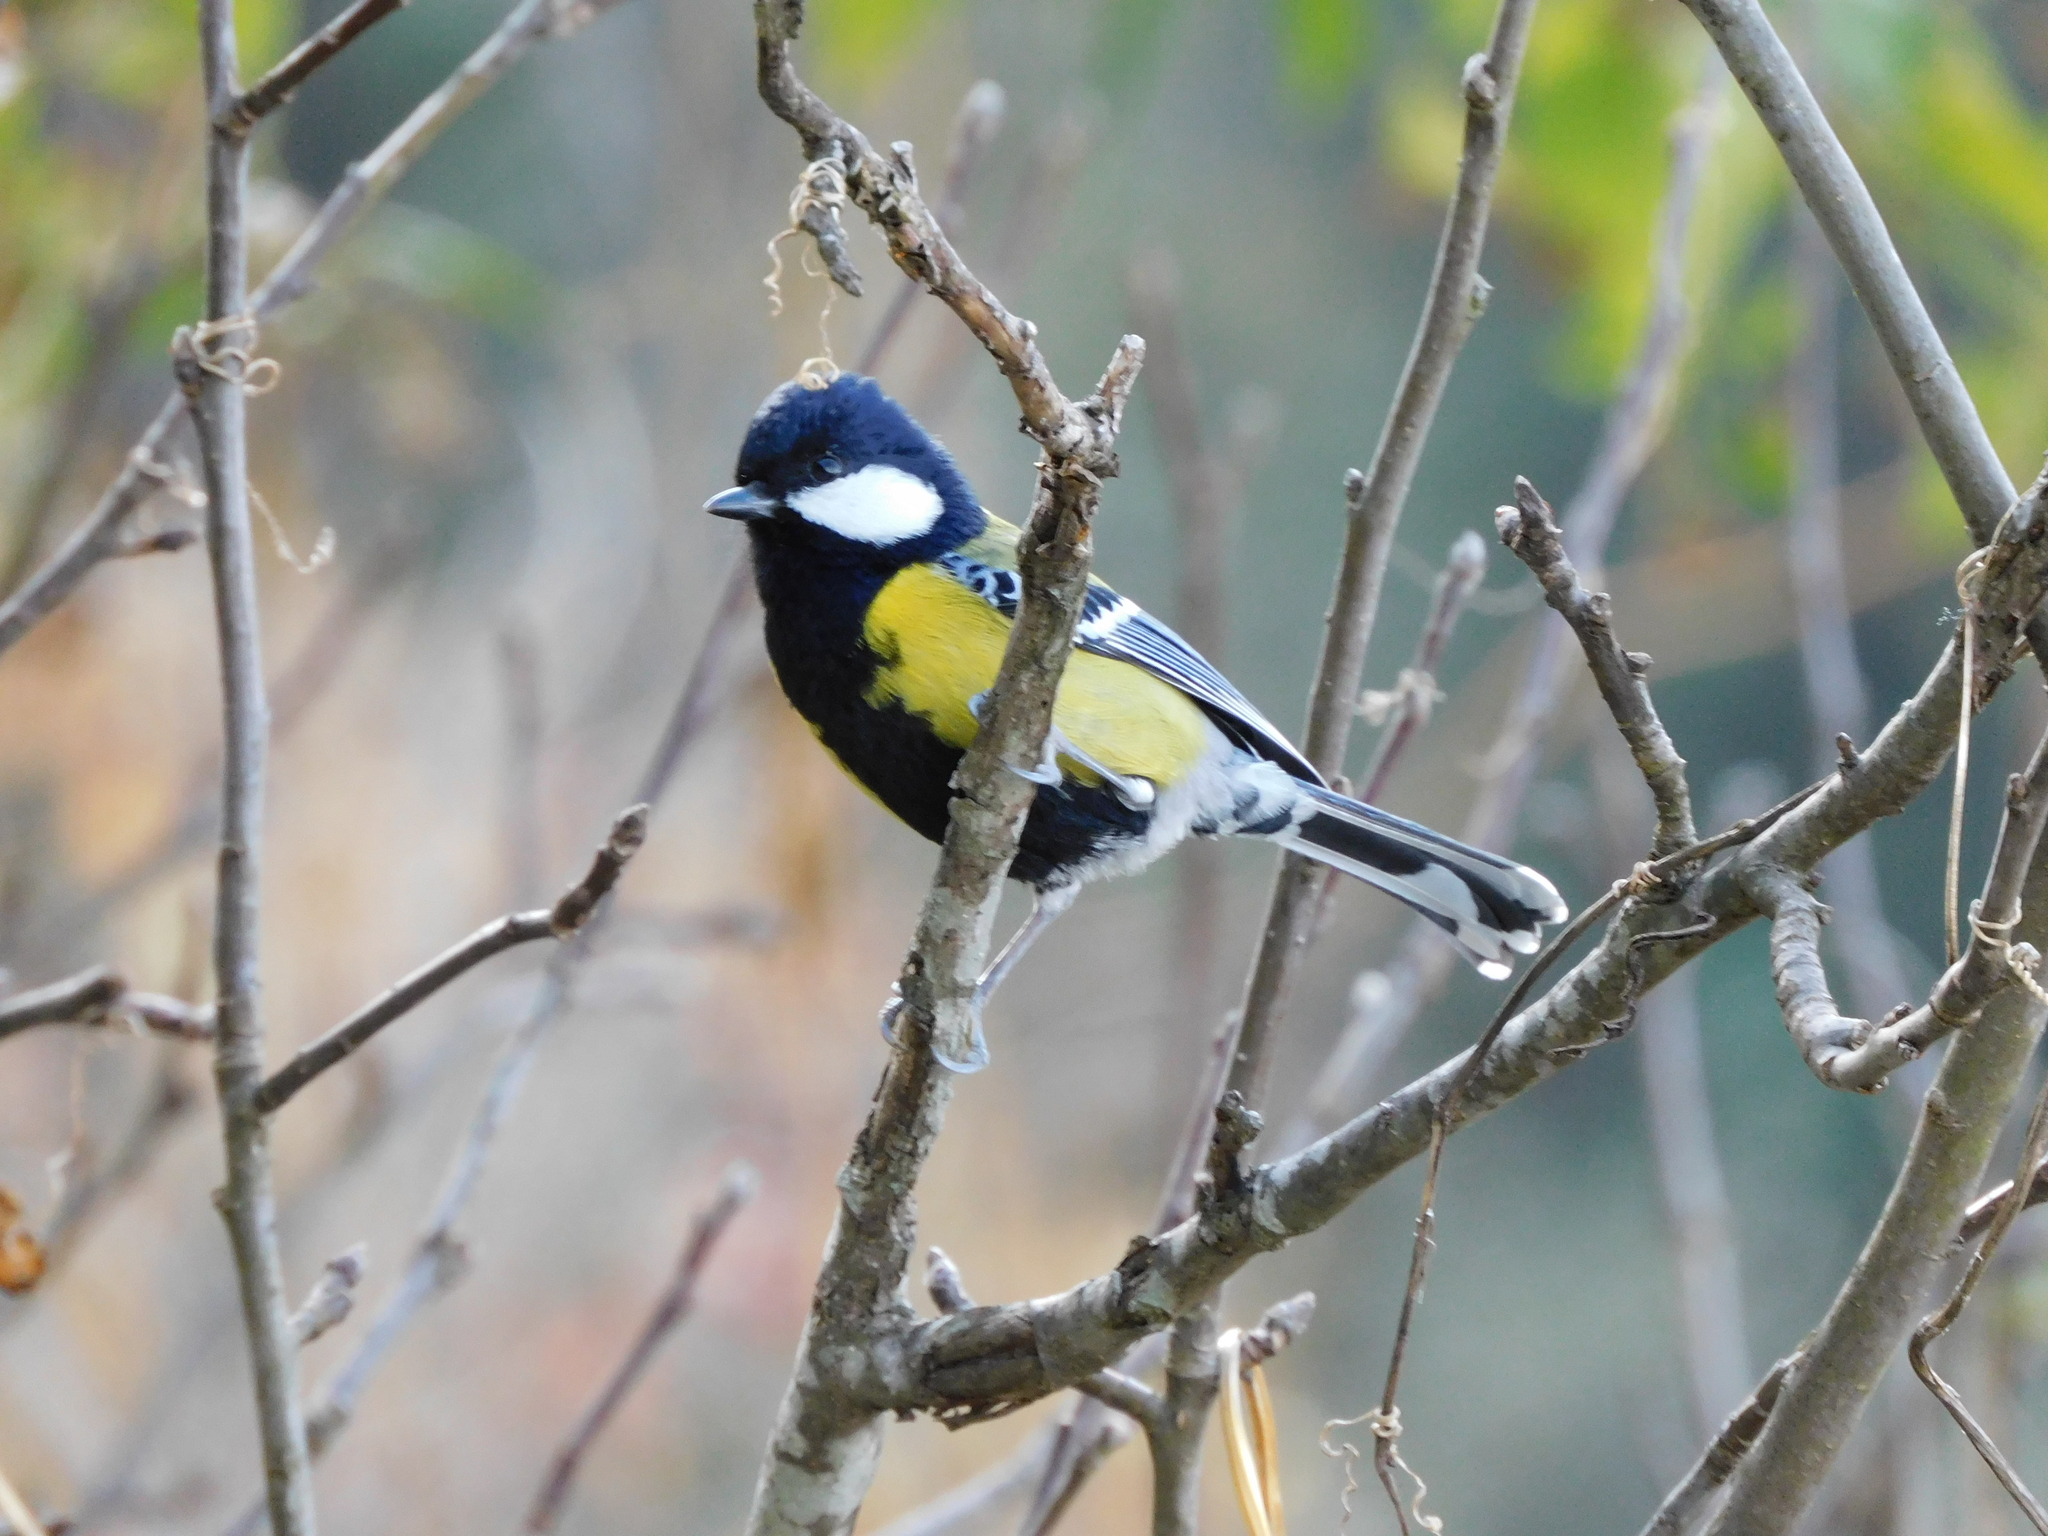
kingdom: Animalia
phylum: Chordata
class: Aves
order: Passeriformes
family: Paridae
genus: Parus
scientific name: Parus monticolus
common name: Green-backed tit
